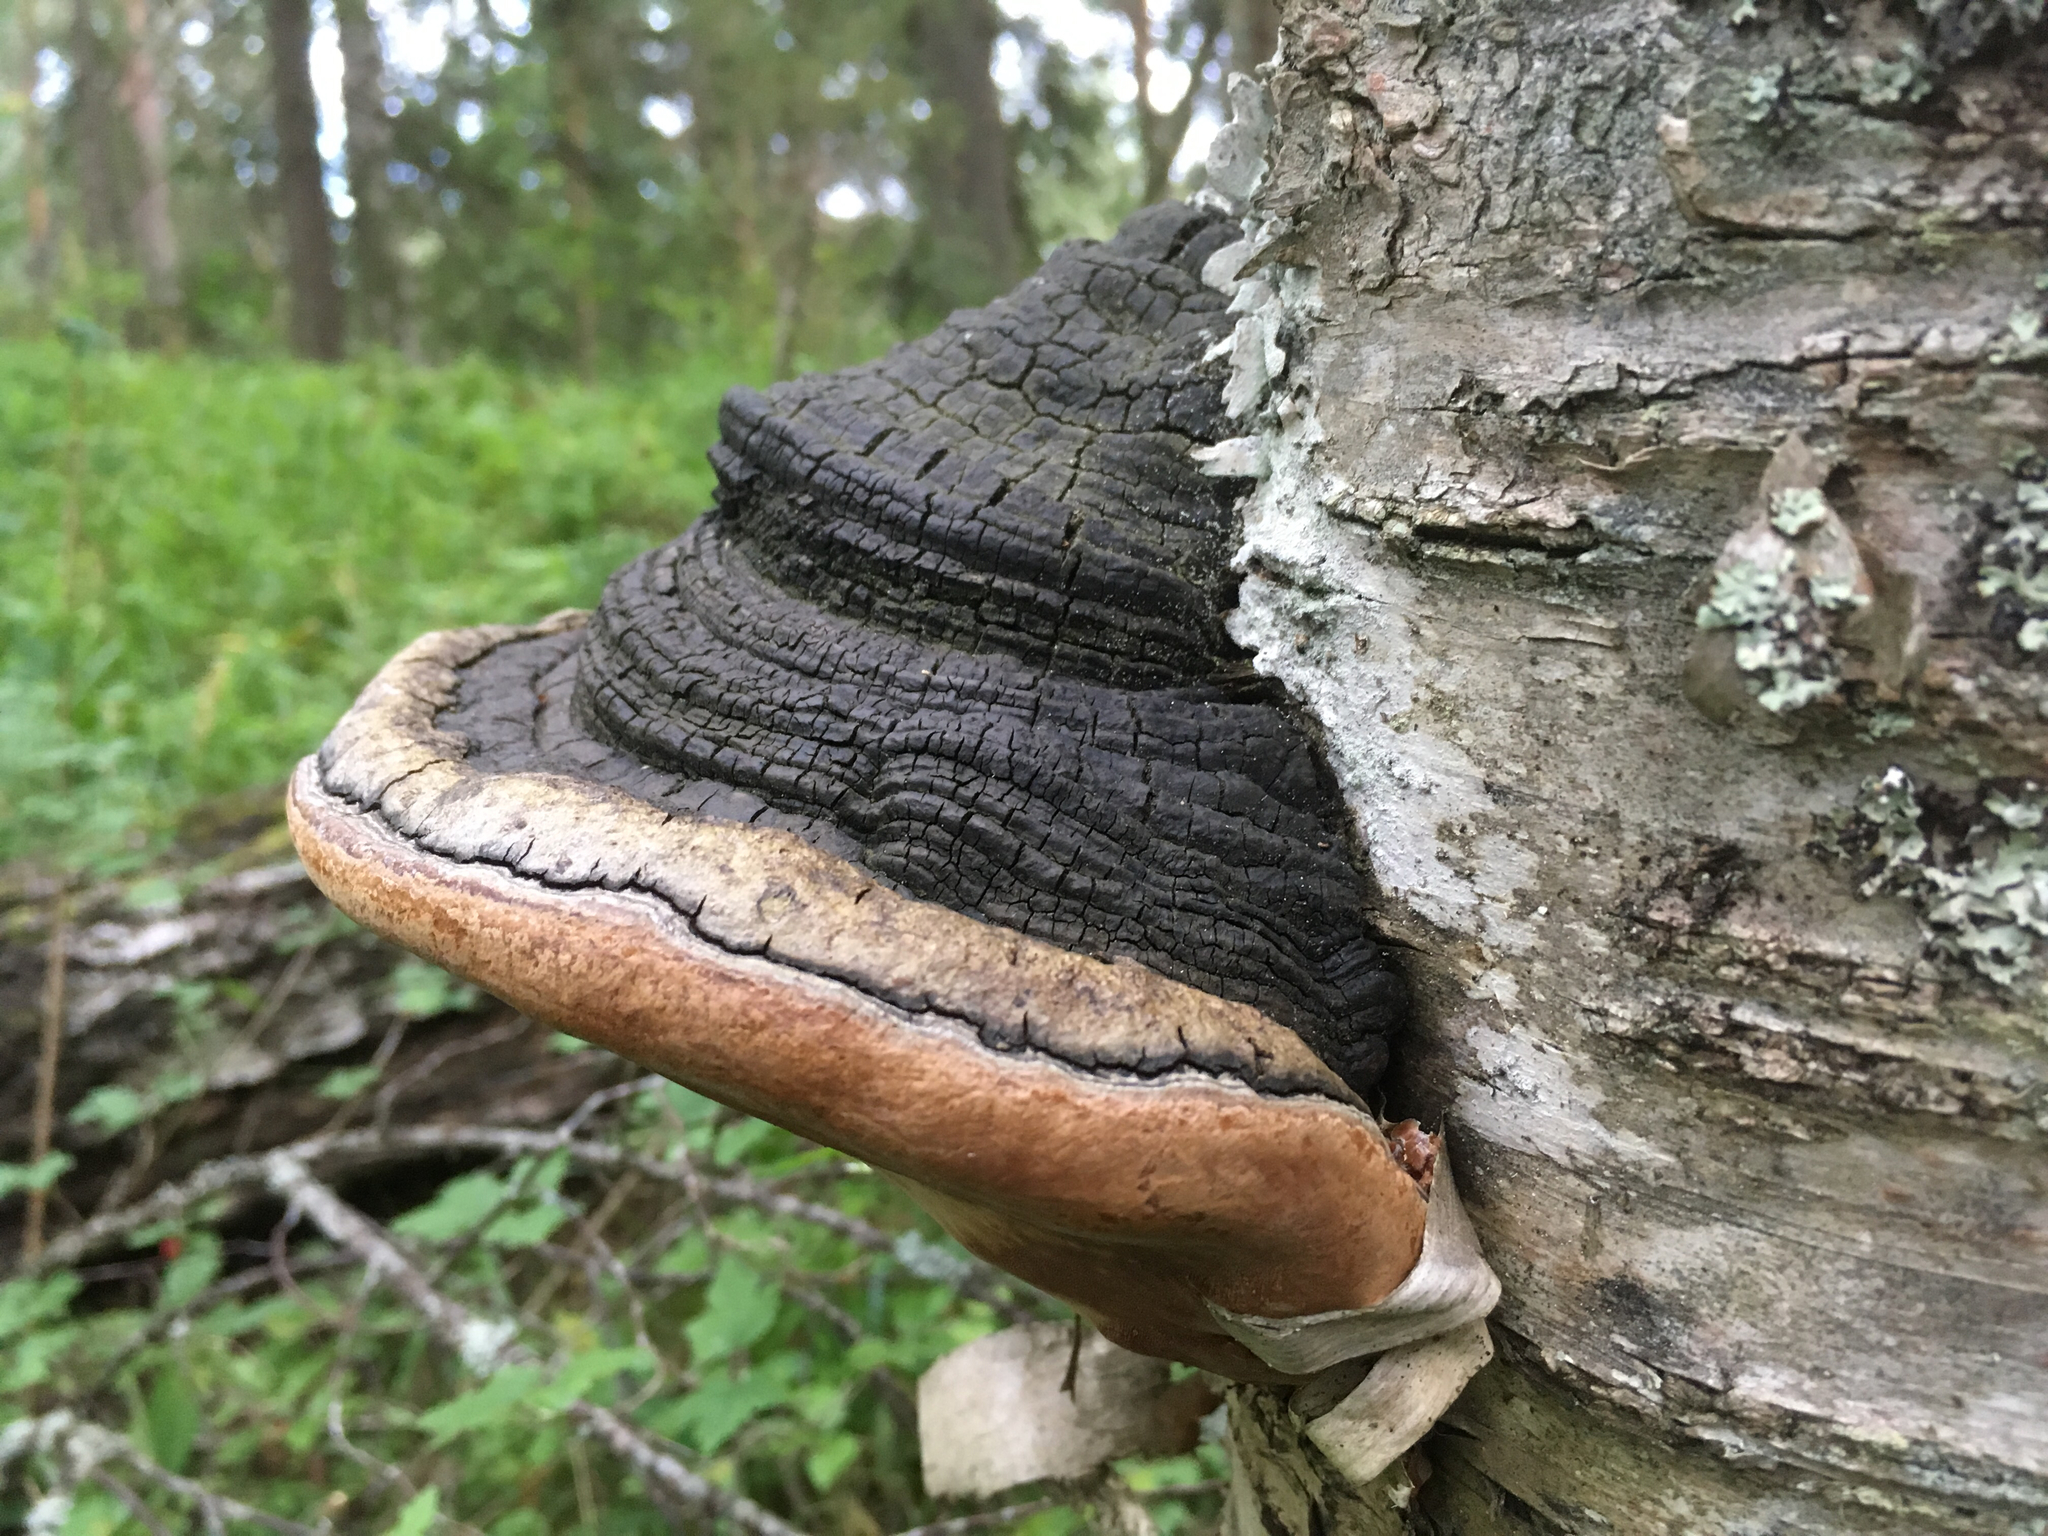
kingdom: Fungi
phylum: Basidiomycota
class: Agaricomycetes
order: Hymenochaetales
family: Hymenochaetaceae
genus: Phellinus
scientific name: Phellinus igniarius
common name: Willow bracket
